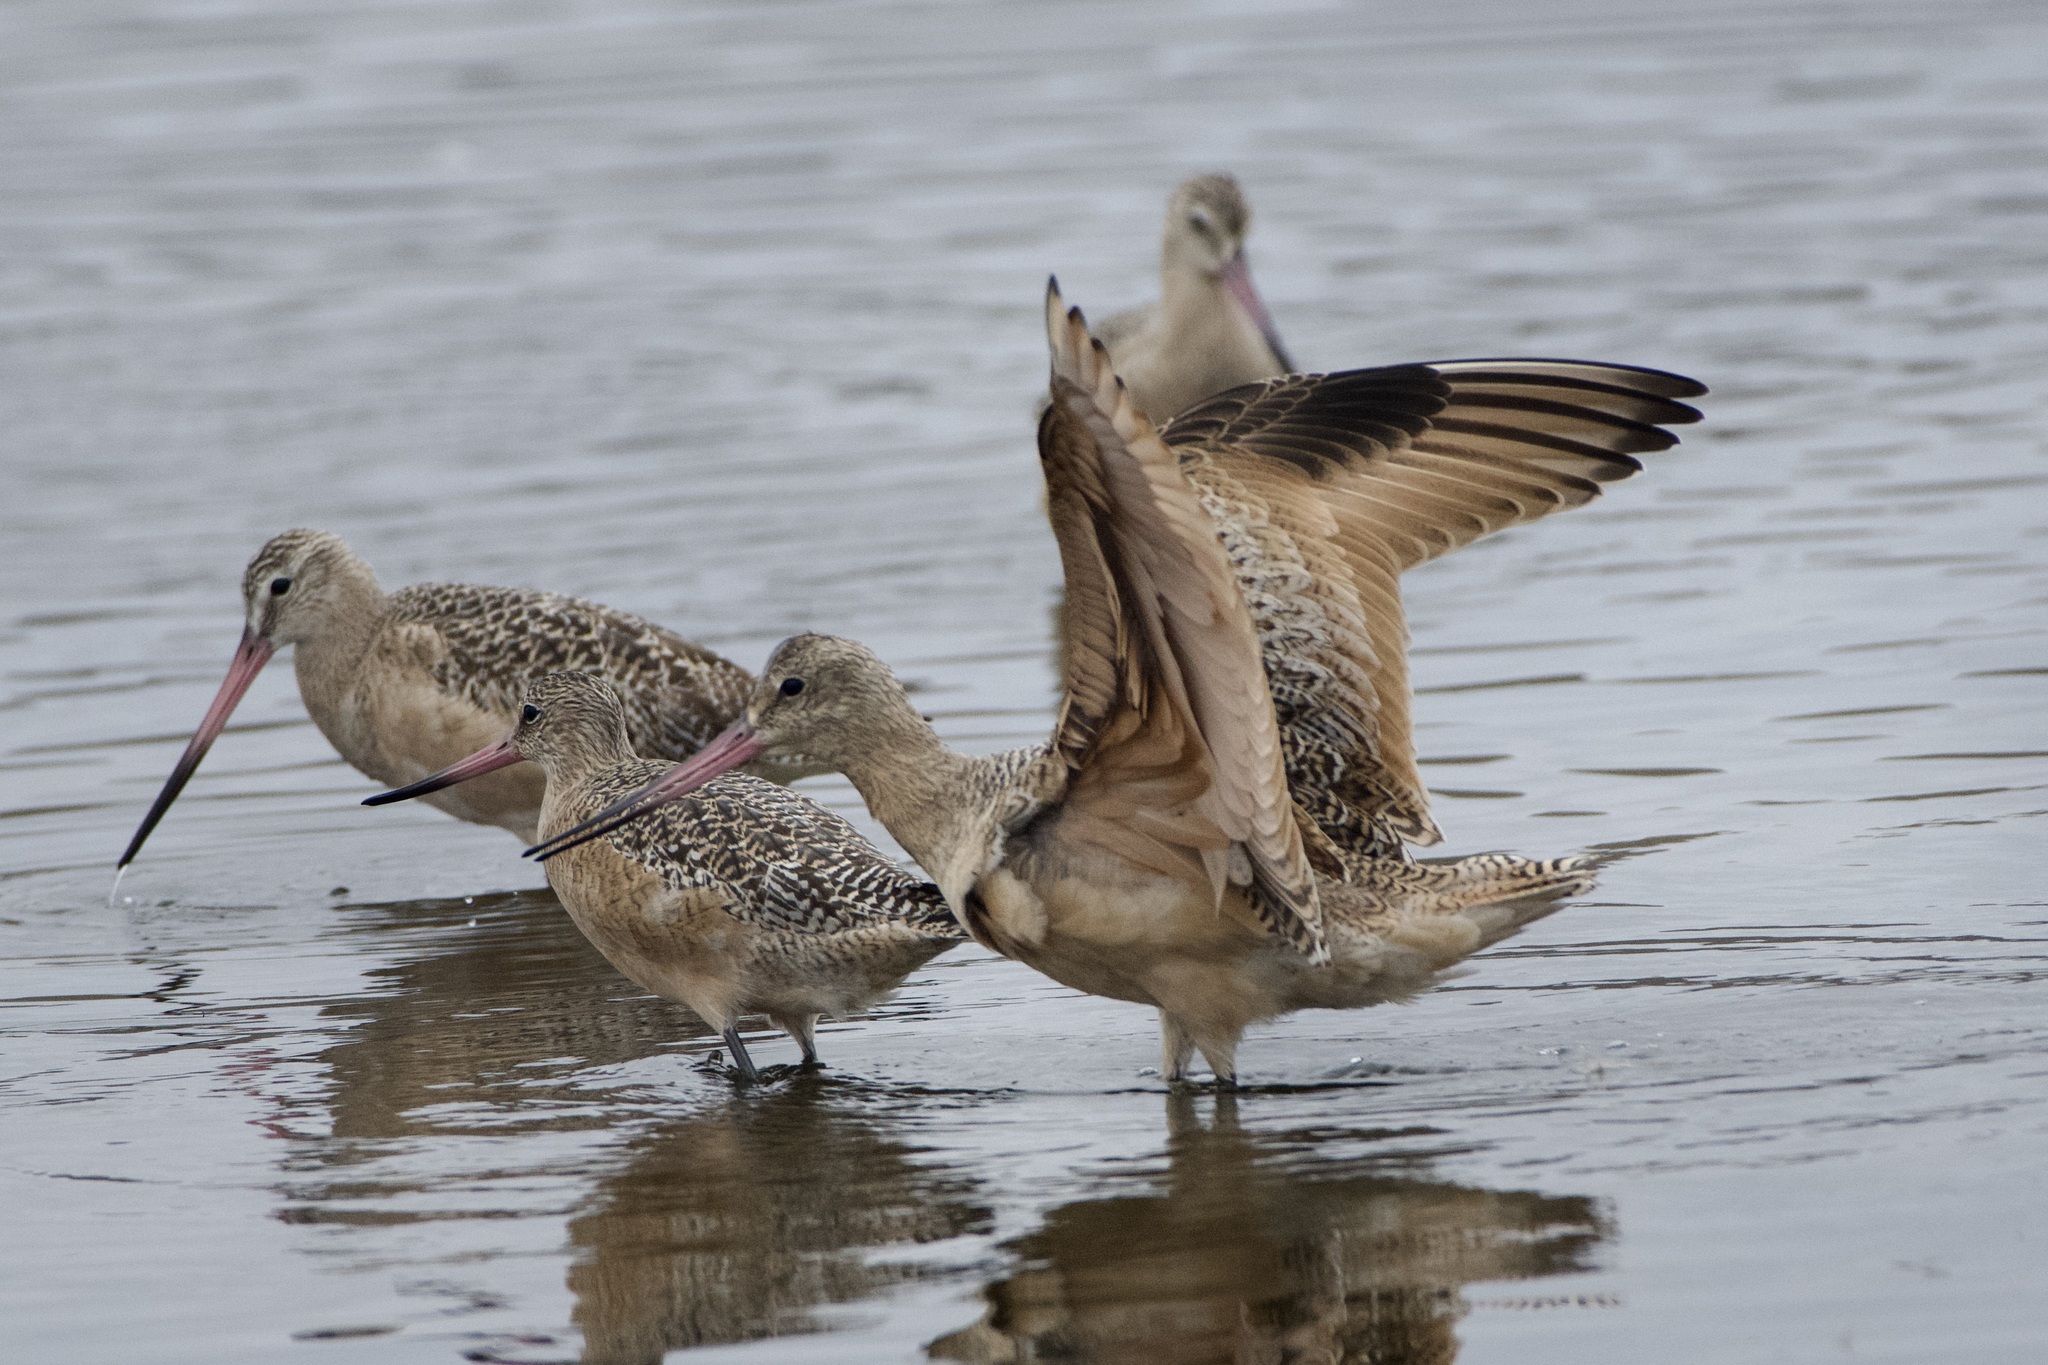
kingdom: Animalia
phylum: Chordata
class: Aves
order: Charadriiformes
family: Scolopacidae
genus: Limosa
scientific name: Limosa fedoa
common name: Marbled godwit
